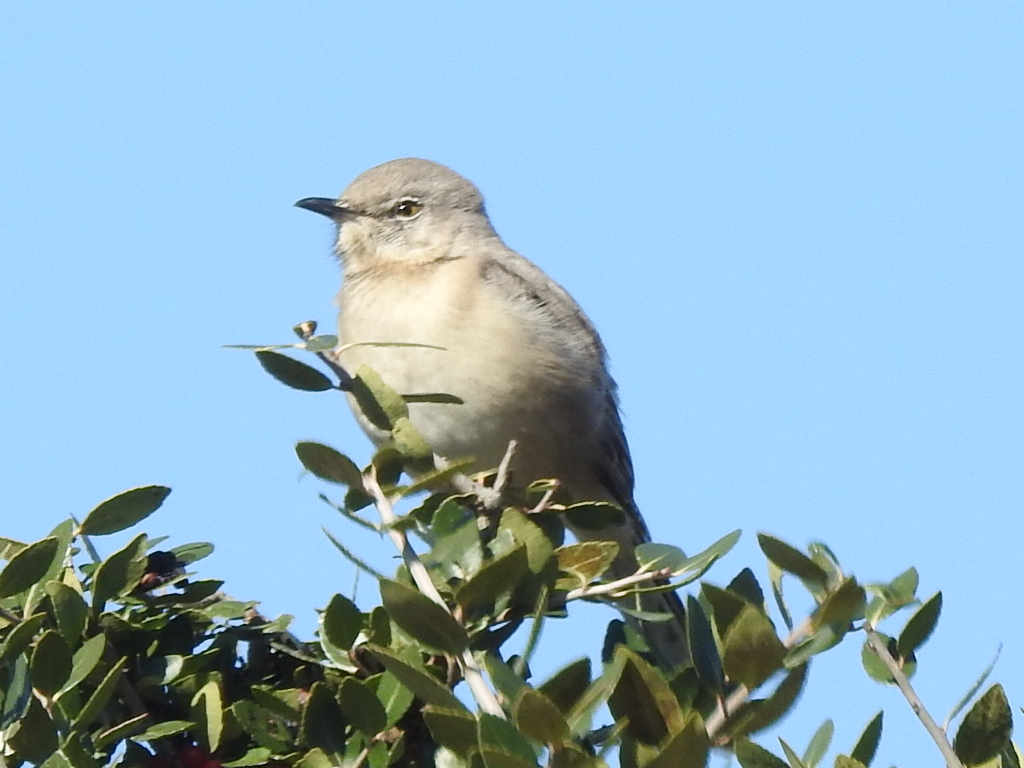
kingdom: Animalia
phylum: Chordata
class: Aves
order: Passeriformes
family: Mimidae
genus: Mimus
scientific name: Mimus polyglottos
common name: Northern mockingbird
